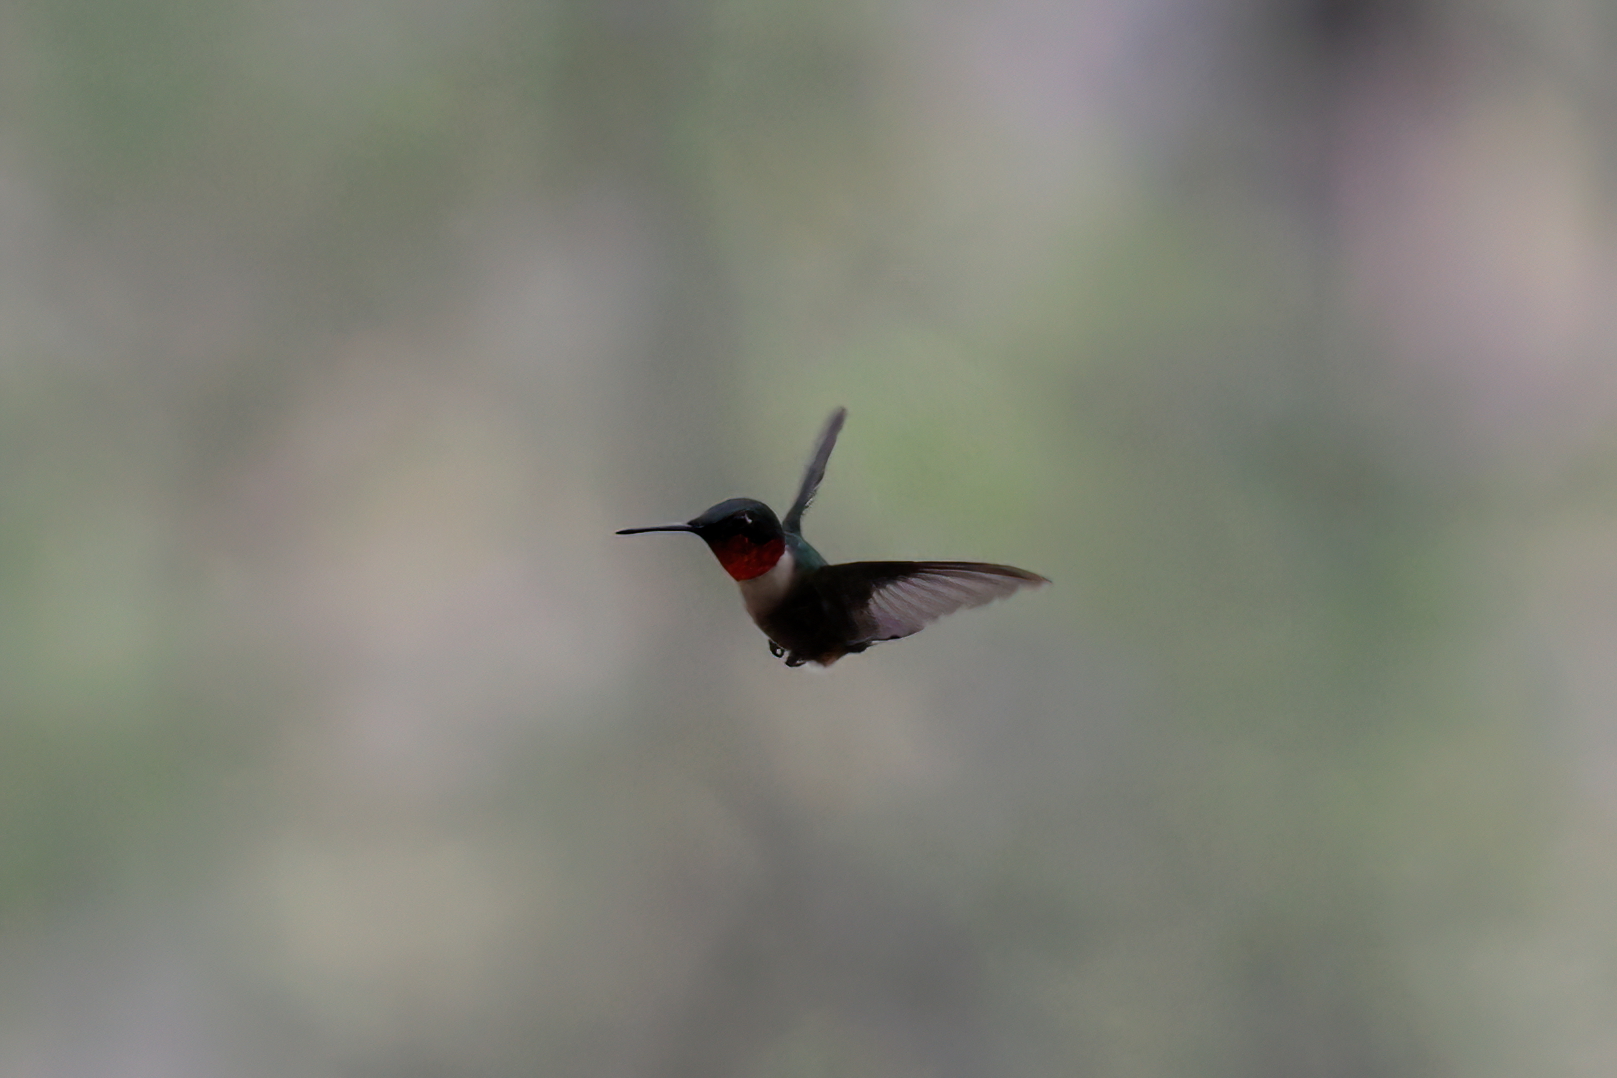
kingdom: Animalia
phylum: Chordata
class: Aves
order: Apodiformes
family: Trochilidae
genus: Archilochus
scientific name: Archilochus colubris
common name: Ruby-throated hummingbird
